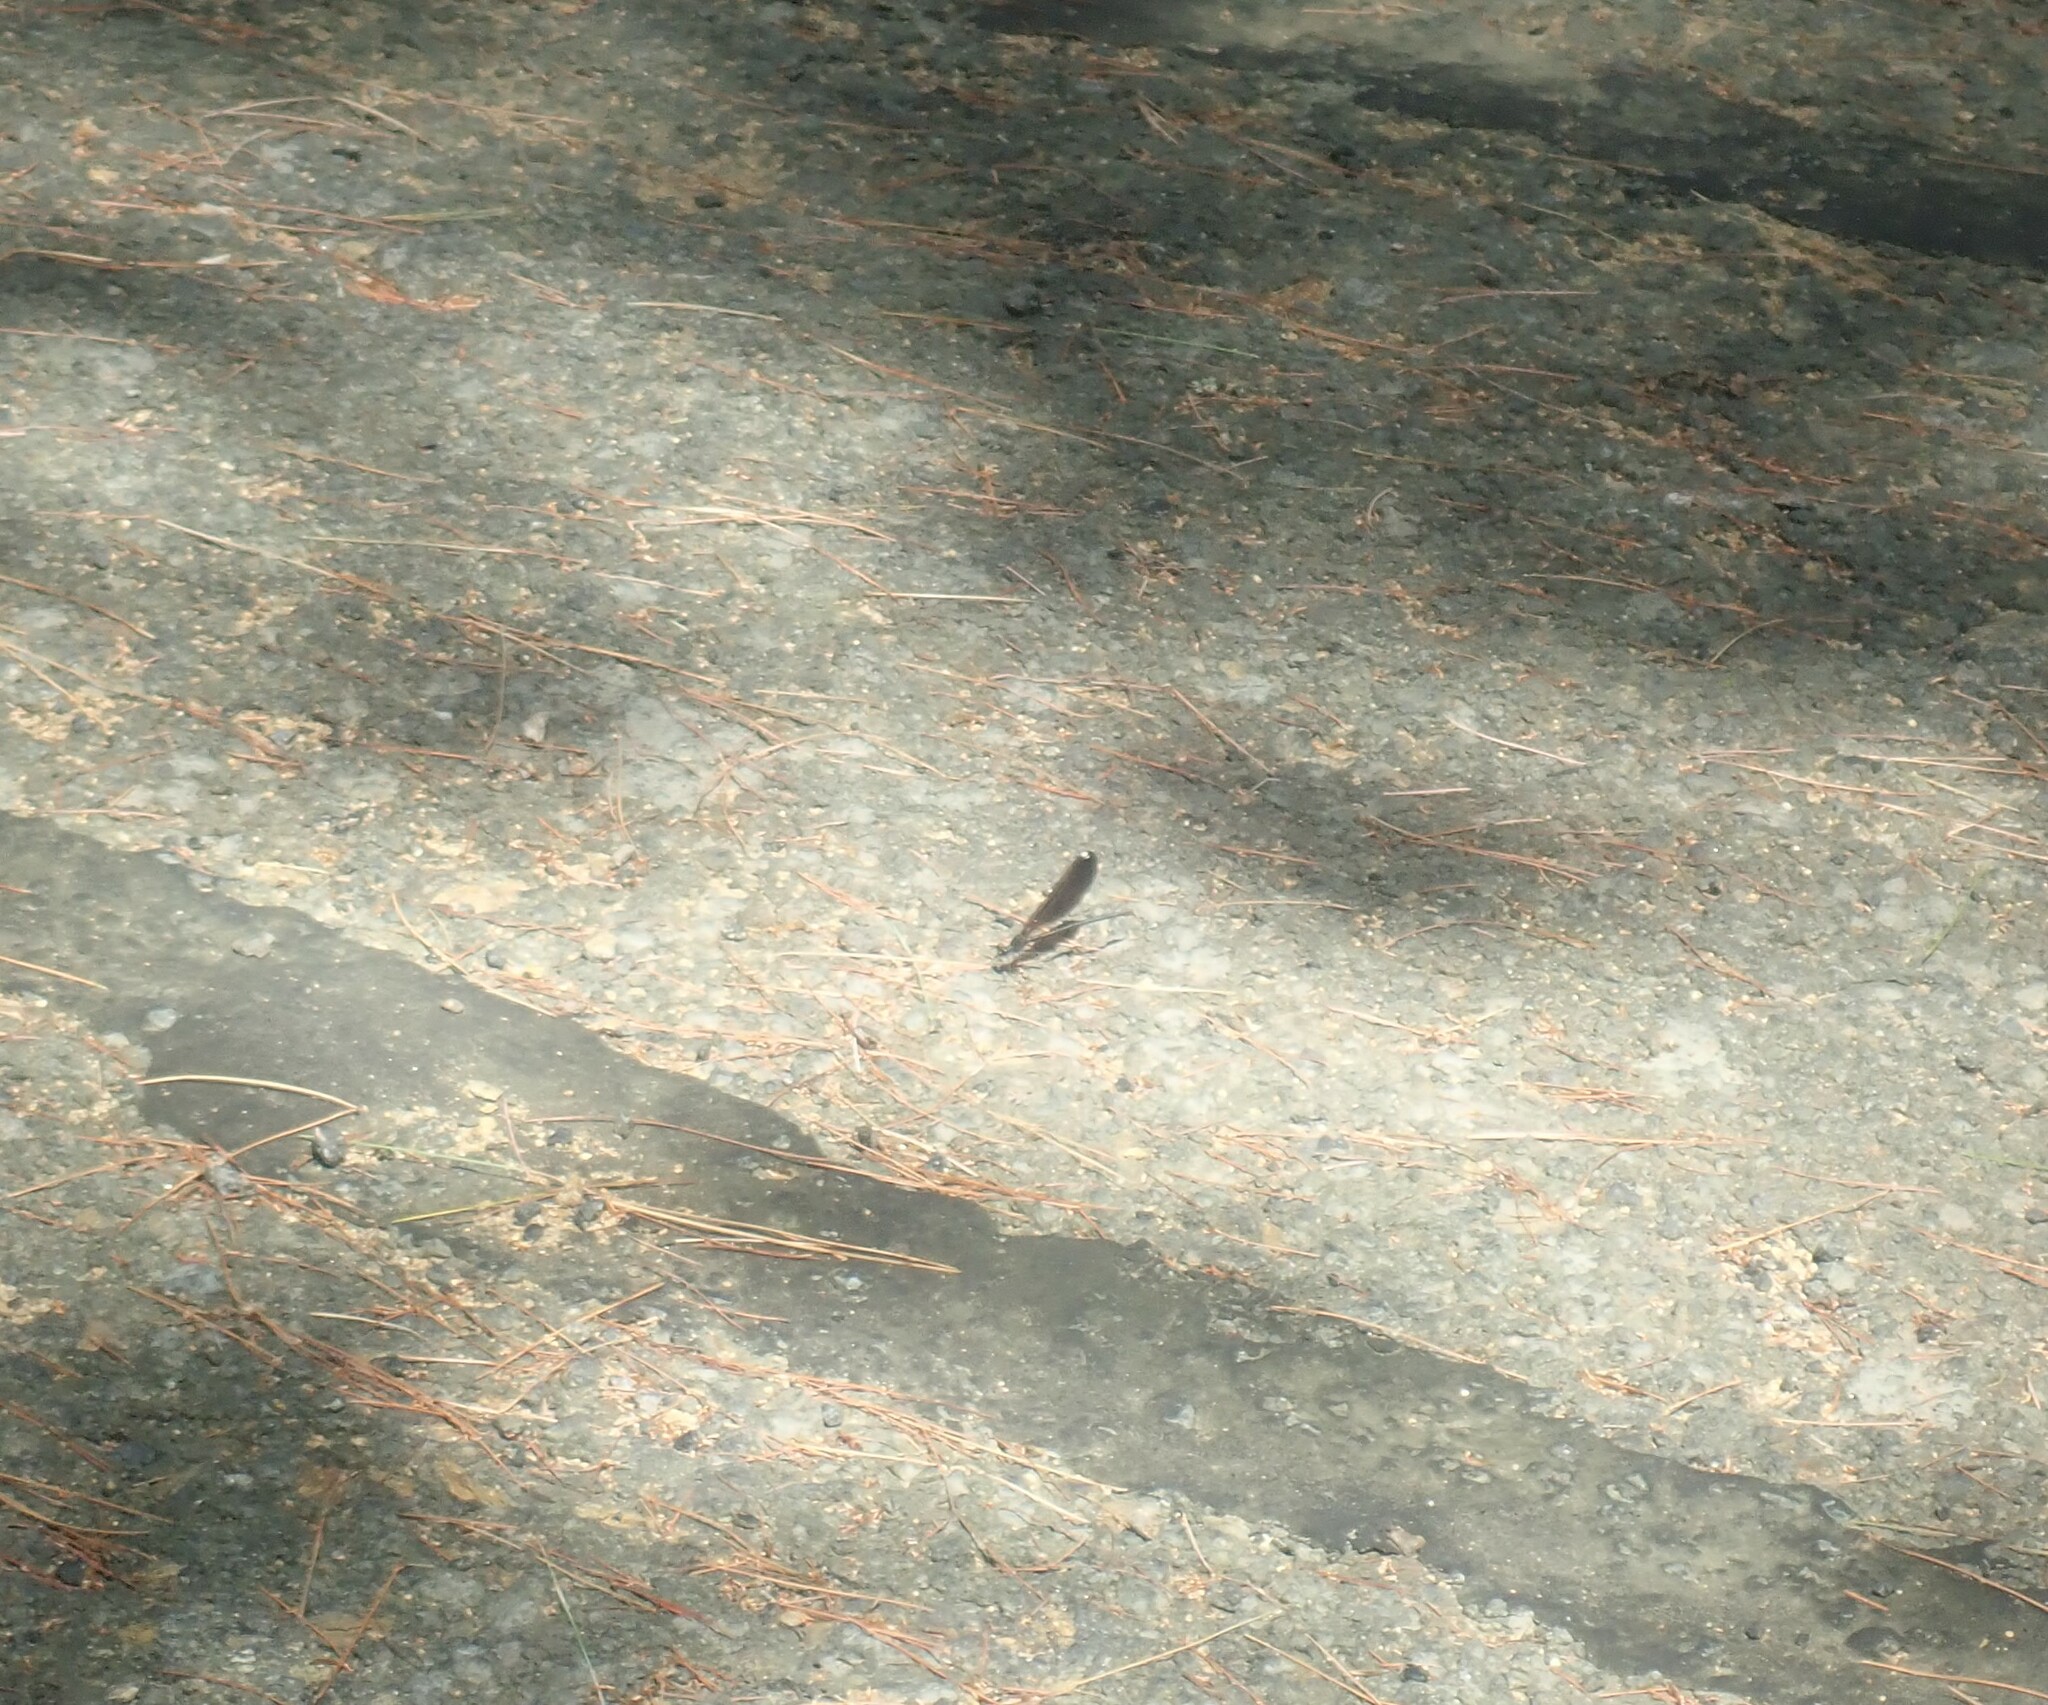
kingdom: Animalia
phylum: Arthropoda
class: Insecta
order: Odonata
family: Calopterygidae
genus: Calopteryx
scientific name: Calopteryx maculata
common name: Ebony jewelwing
